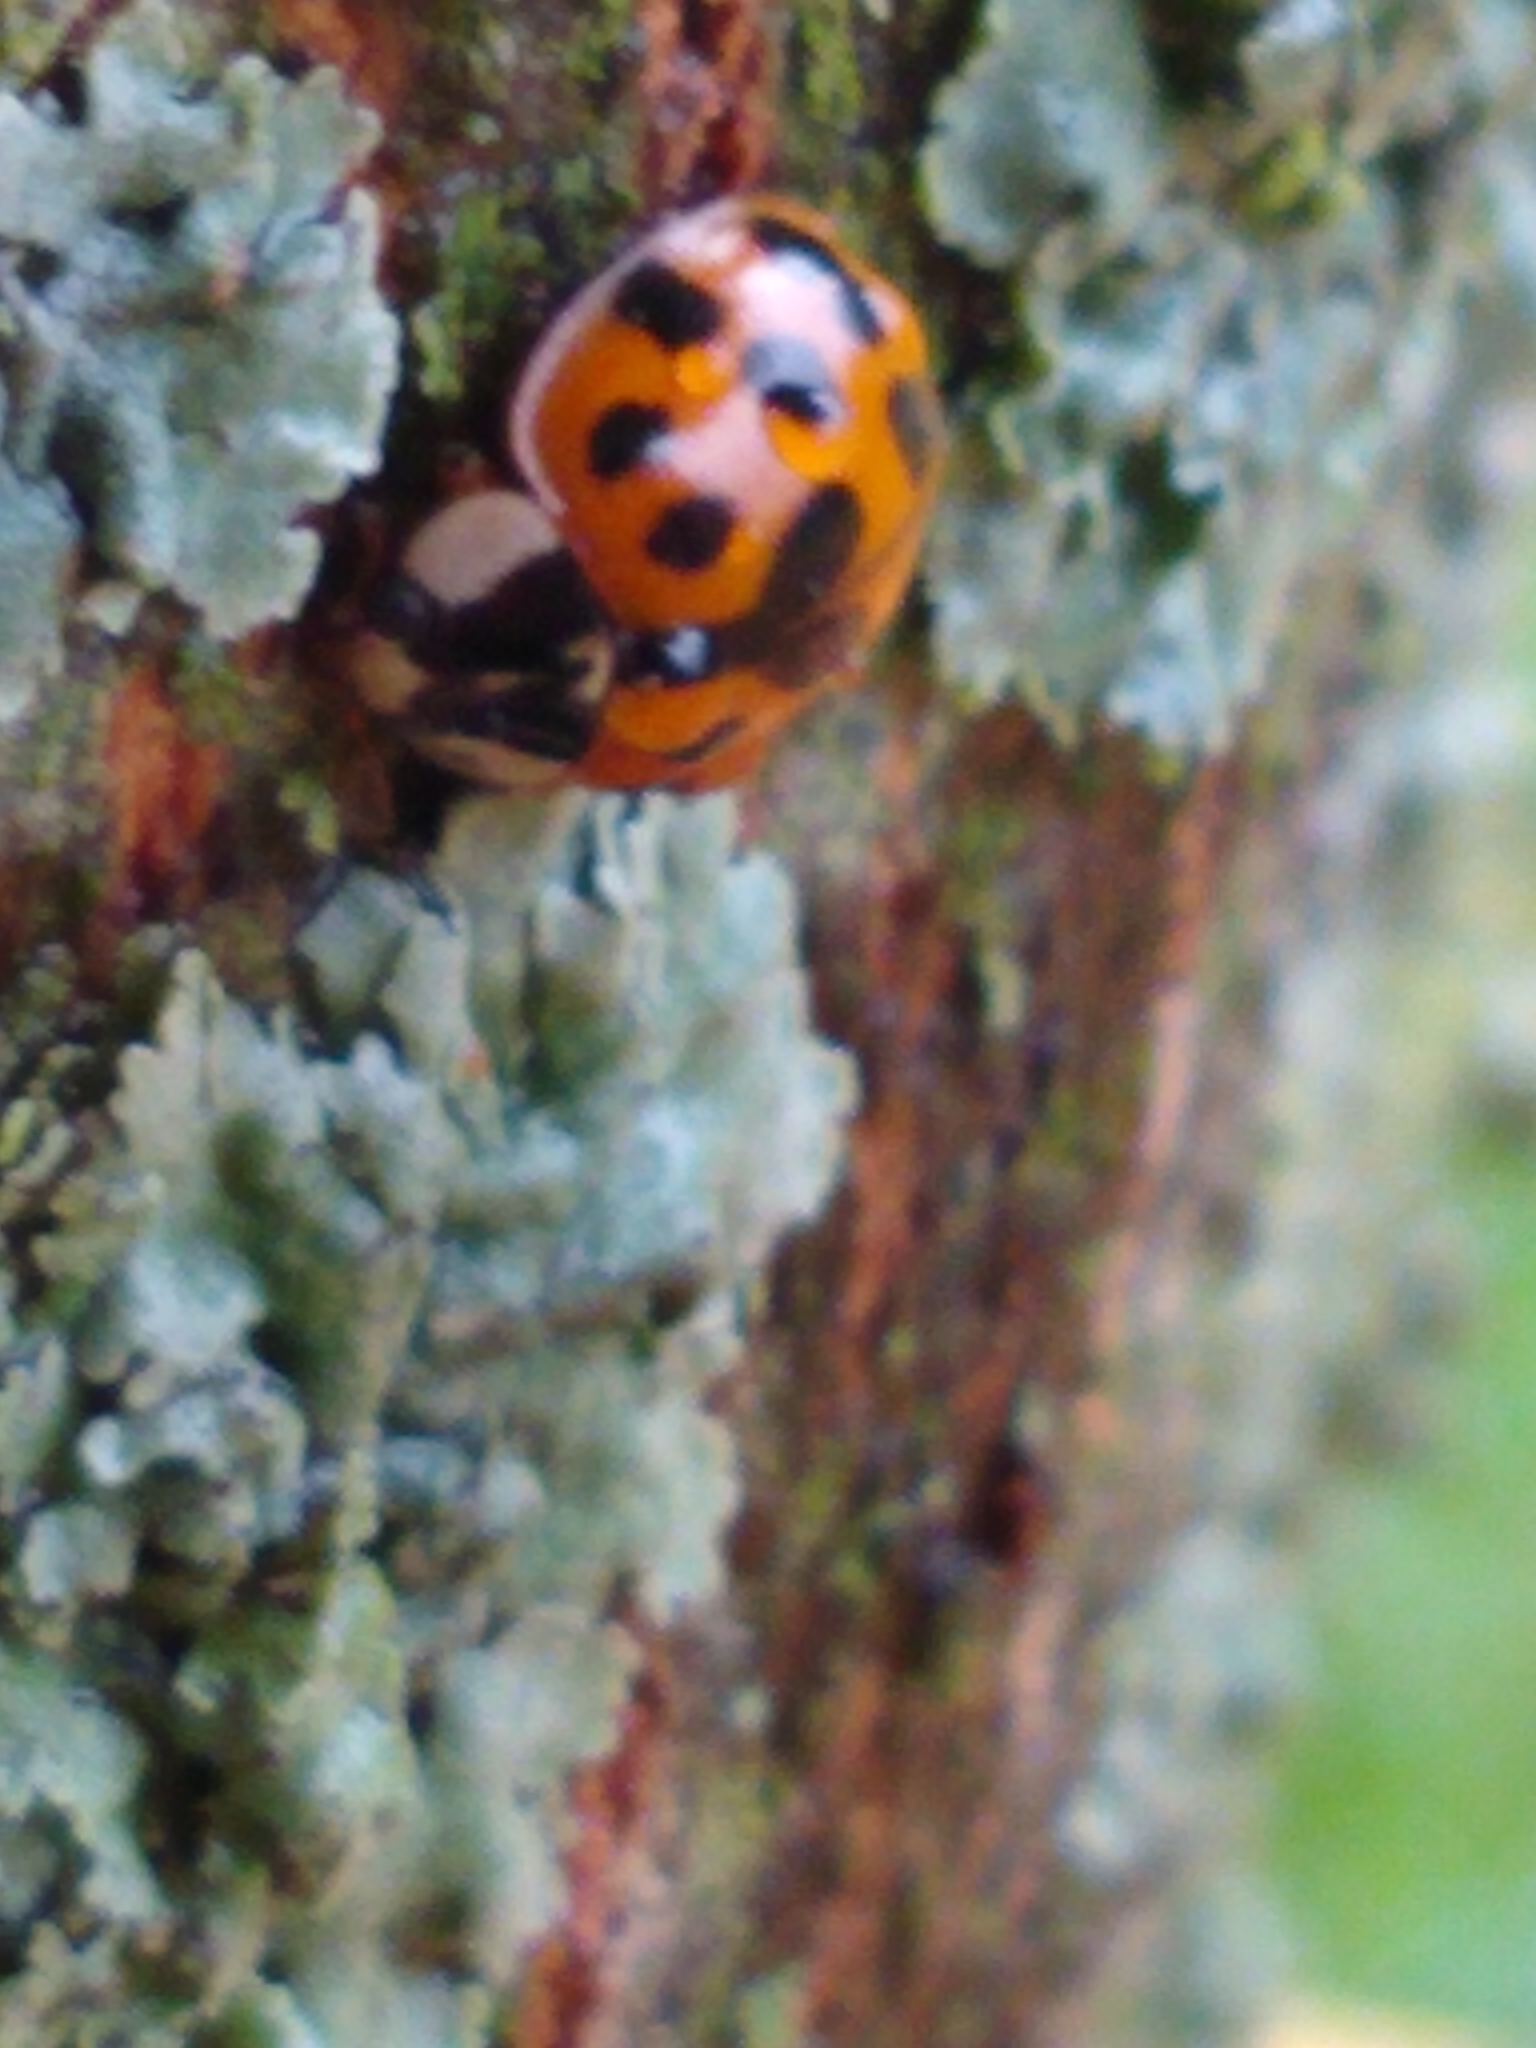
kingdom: Animalia
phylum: Arthropoda
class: Insecta
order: Coleoptera
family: Coccinellidae
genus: Harmonia
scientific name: Harmonia axyridis
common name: Harlequin ladybird
